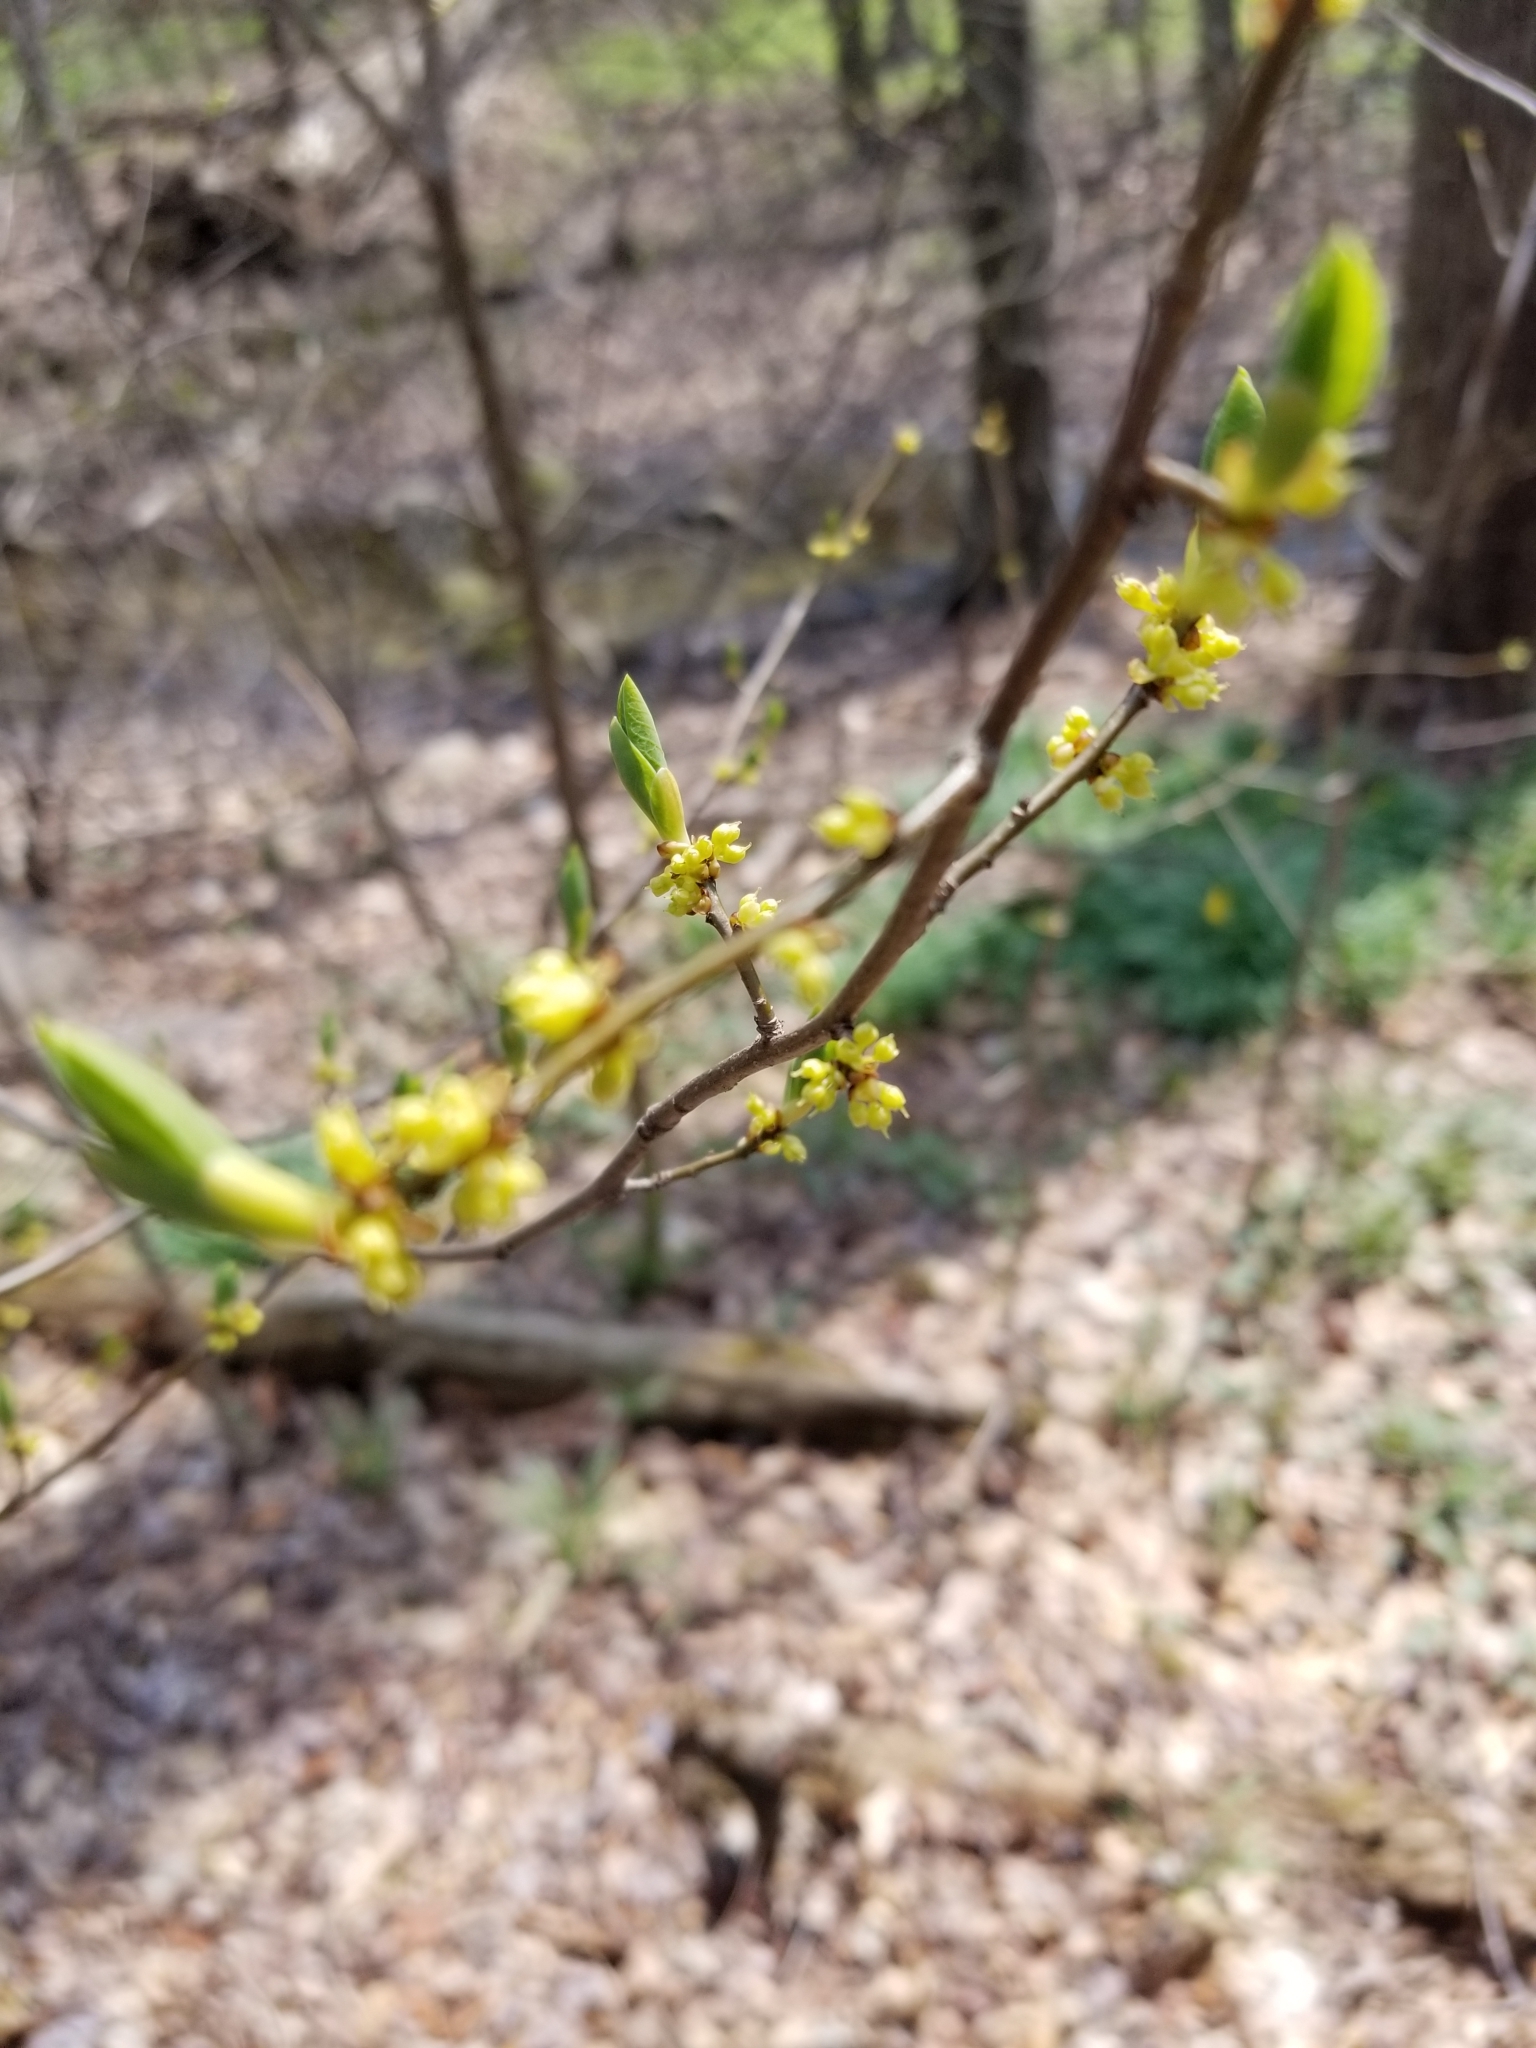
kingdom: Plantae
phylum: Tracheophyta
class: Magnoliopsida
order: Laurales
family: Lauraceae
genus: Lindera
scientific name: Lindera benzoin
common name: Spicebush
